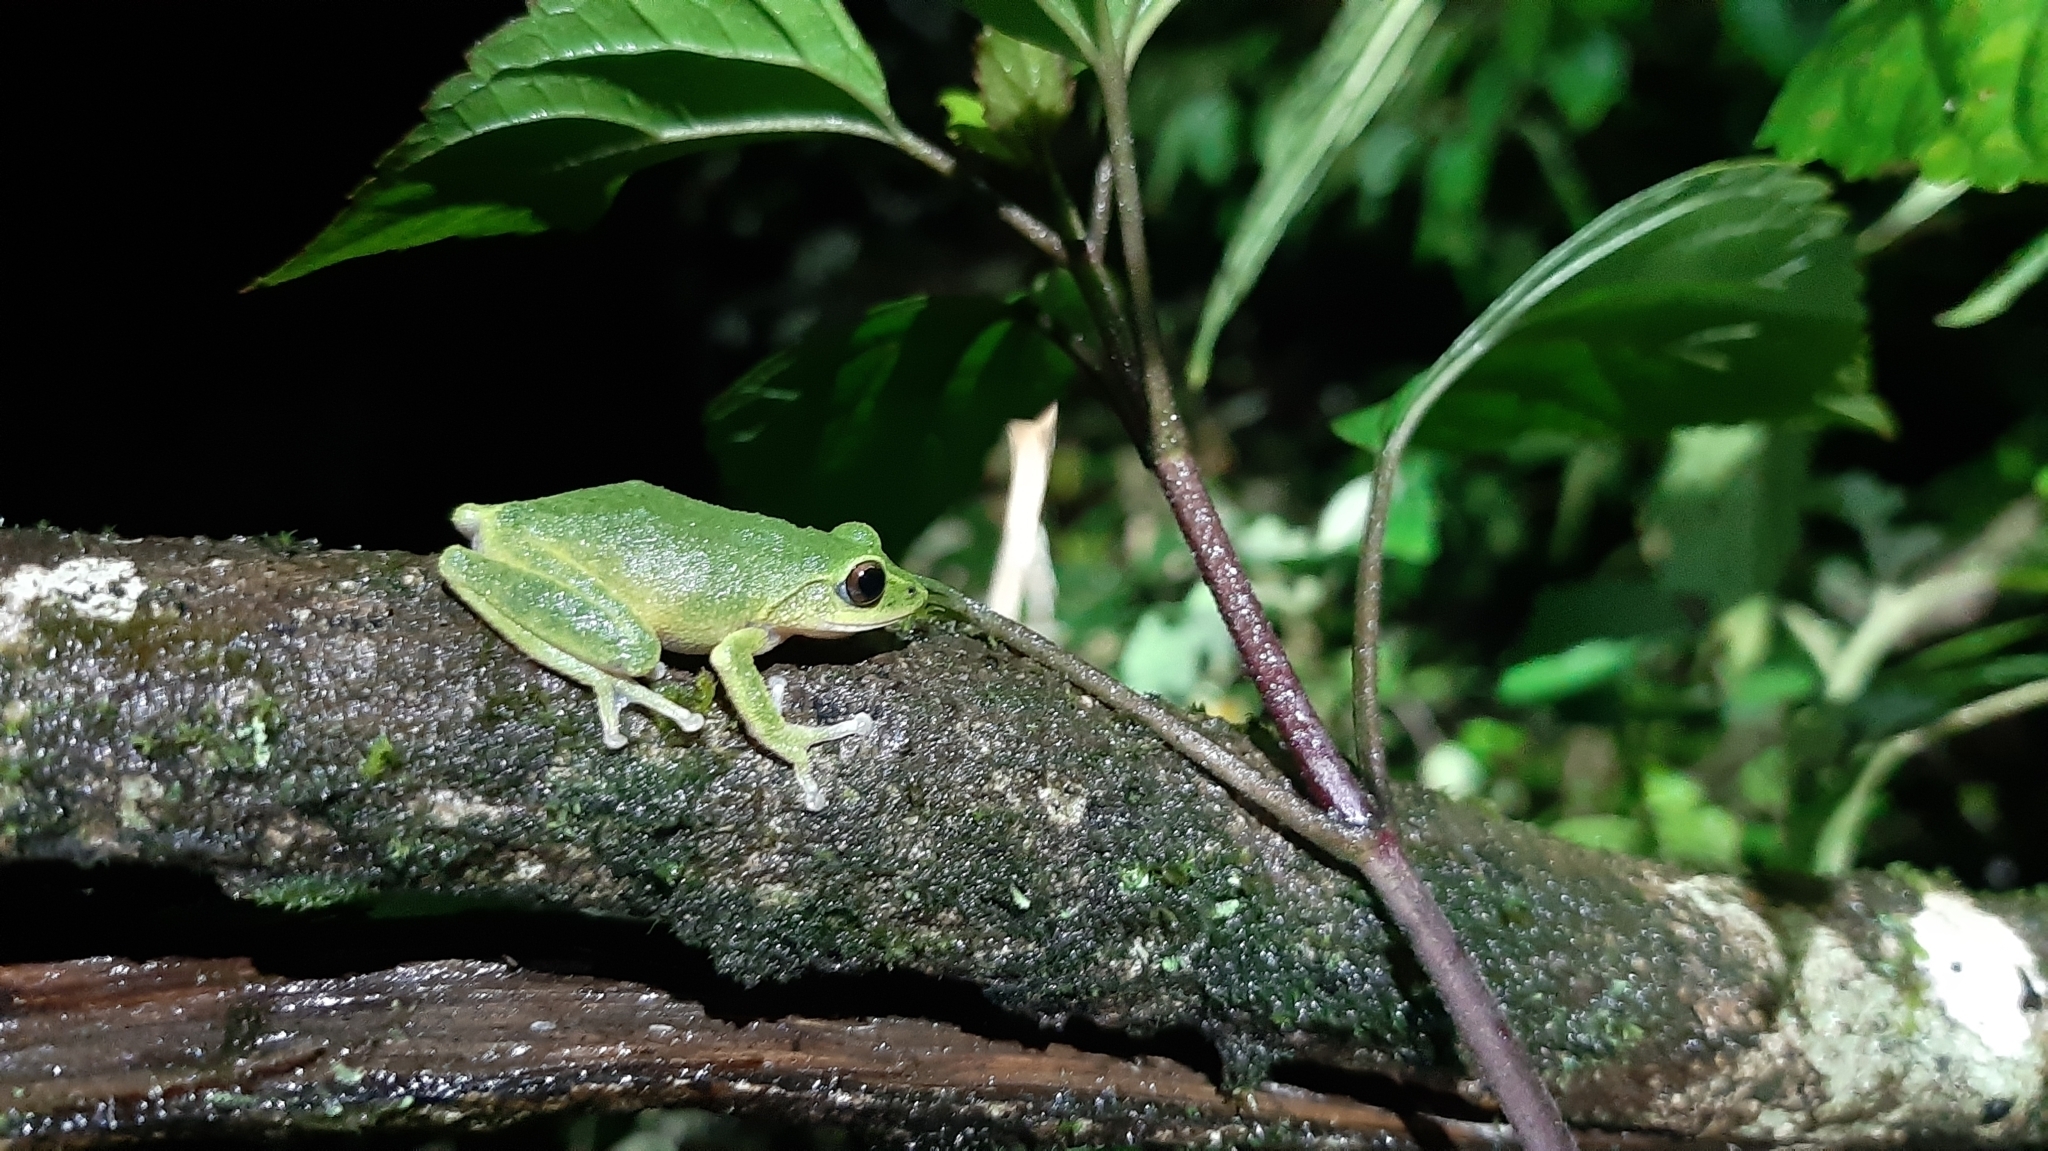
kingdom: Animalia
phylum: Chordata
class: Amphibia
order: Anura
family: Rhacophoridae
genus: Raorchestes
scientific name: Raorchestes chromasynchysi
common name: Confusing green bush frog
